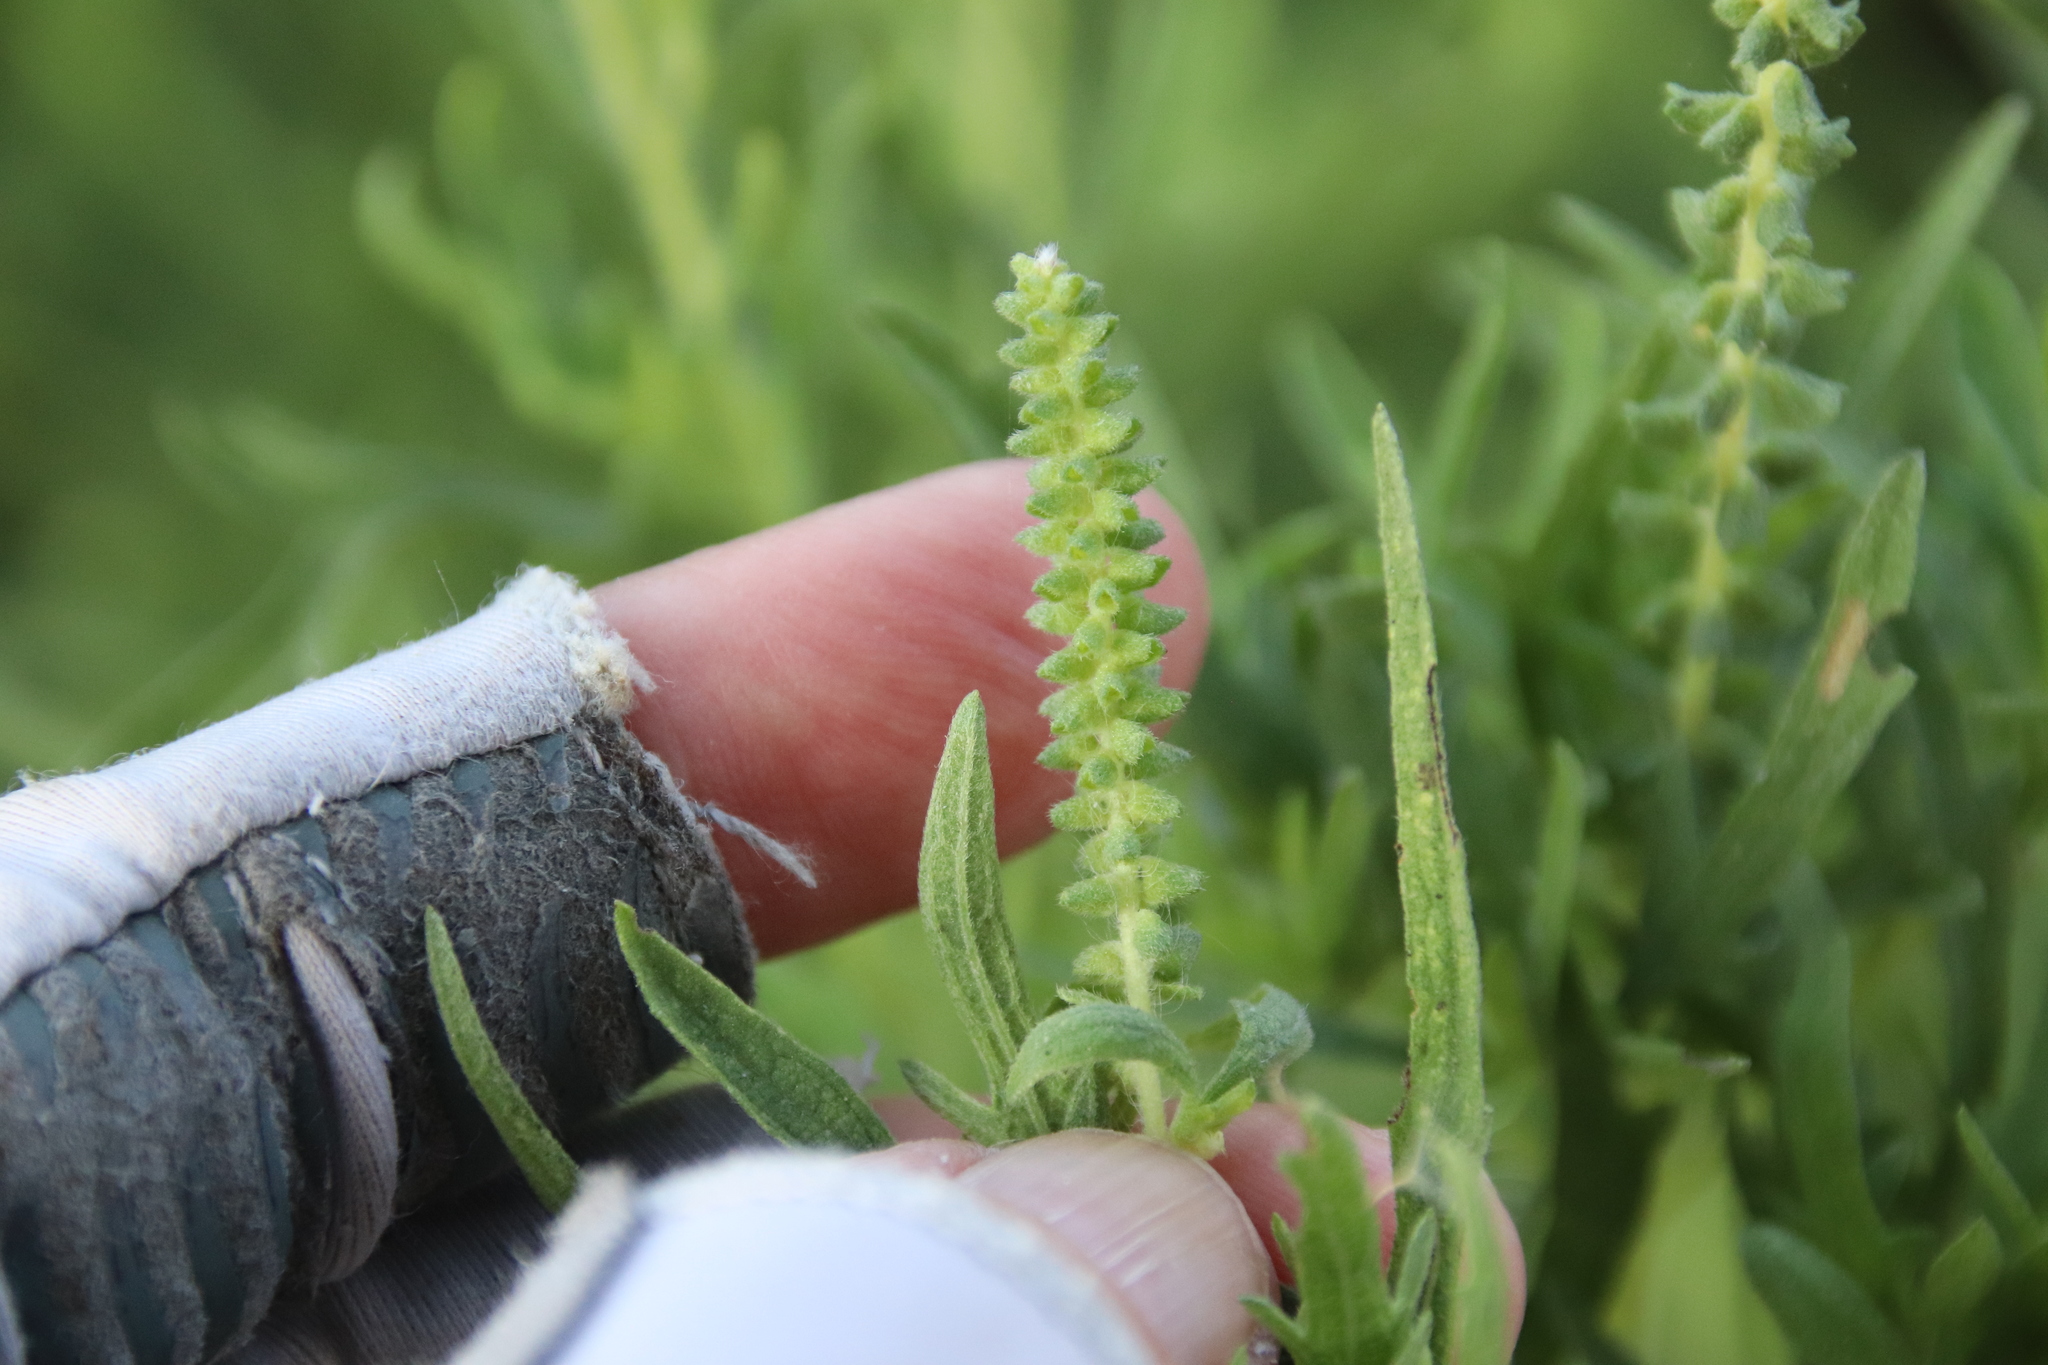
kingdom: Plantae
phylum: Tracheophyta
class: Magnoliopsida
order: Asterales
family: Asteraceae
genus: Ambrosia
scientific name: Ambrosia psilostachya
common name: Perennial ragweed
